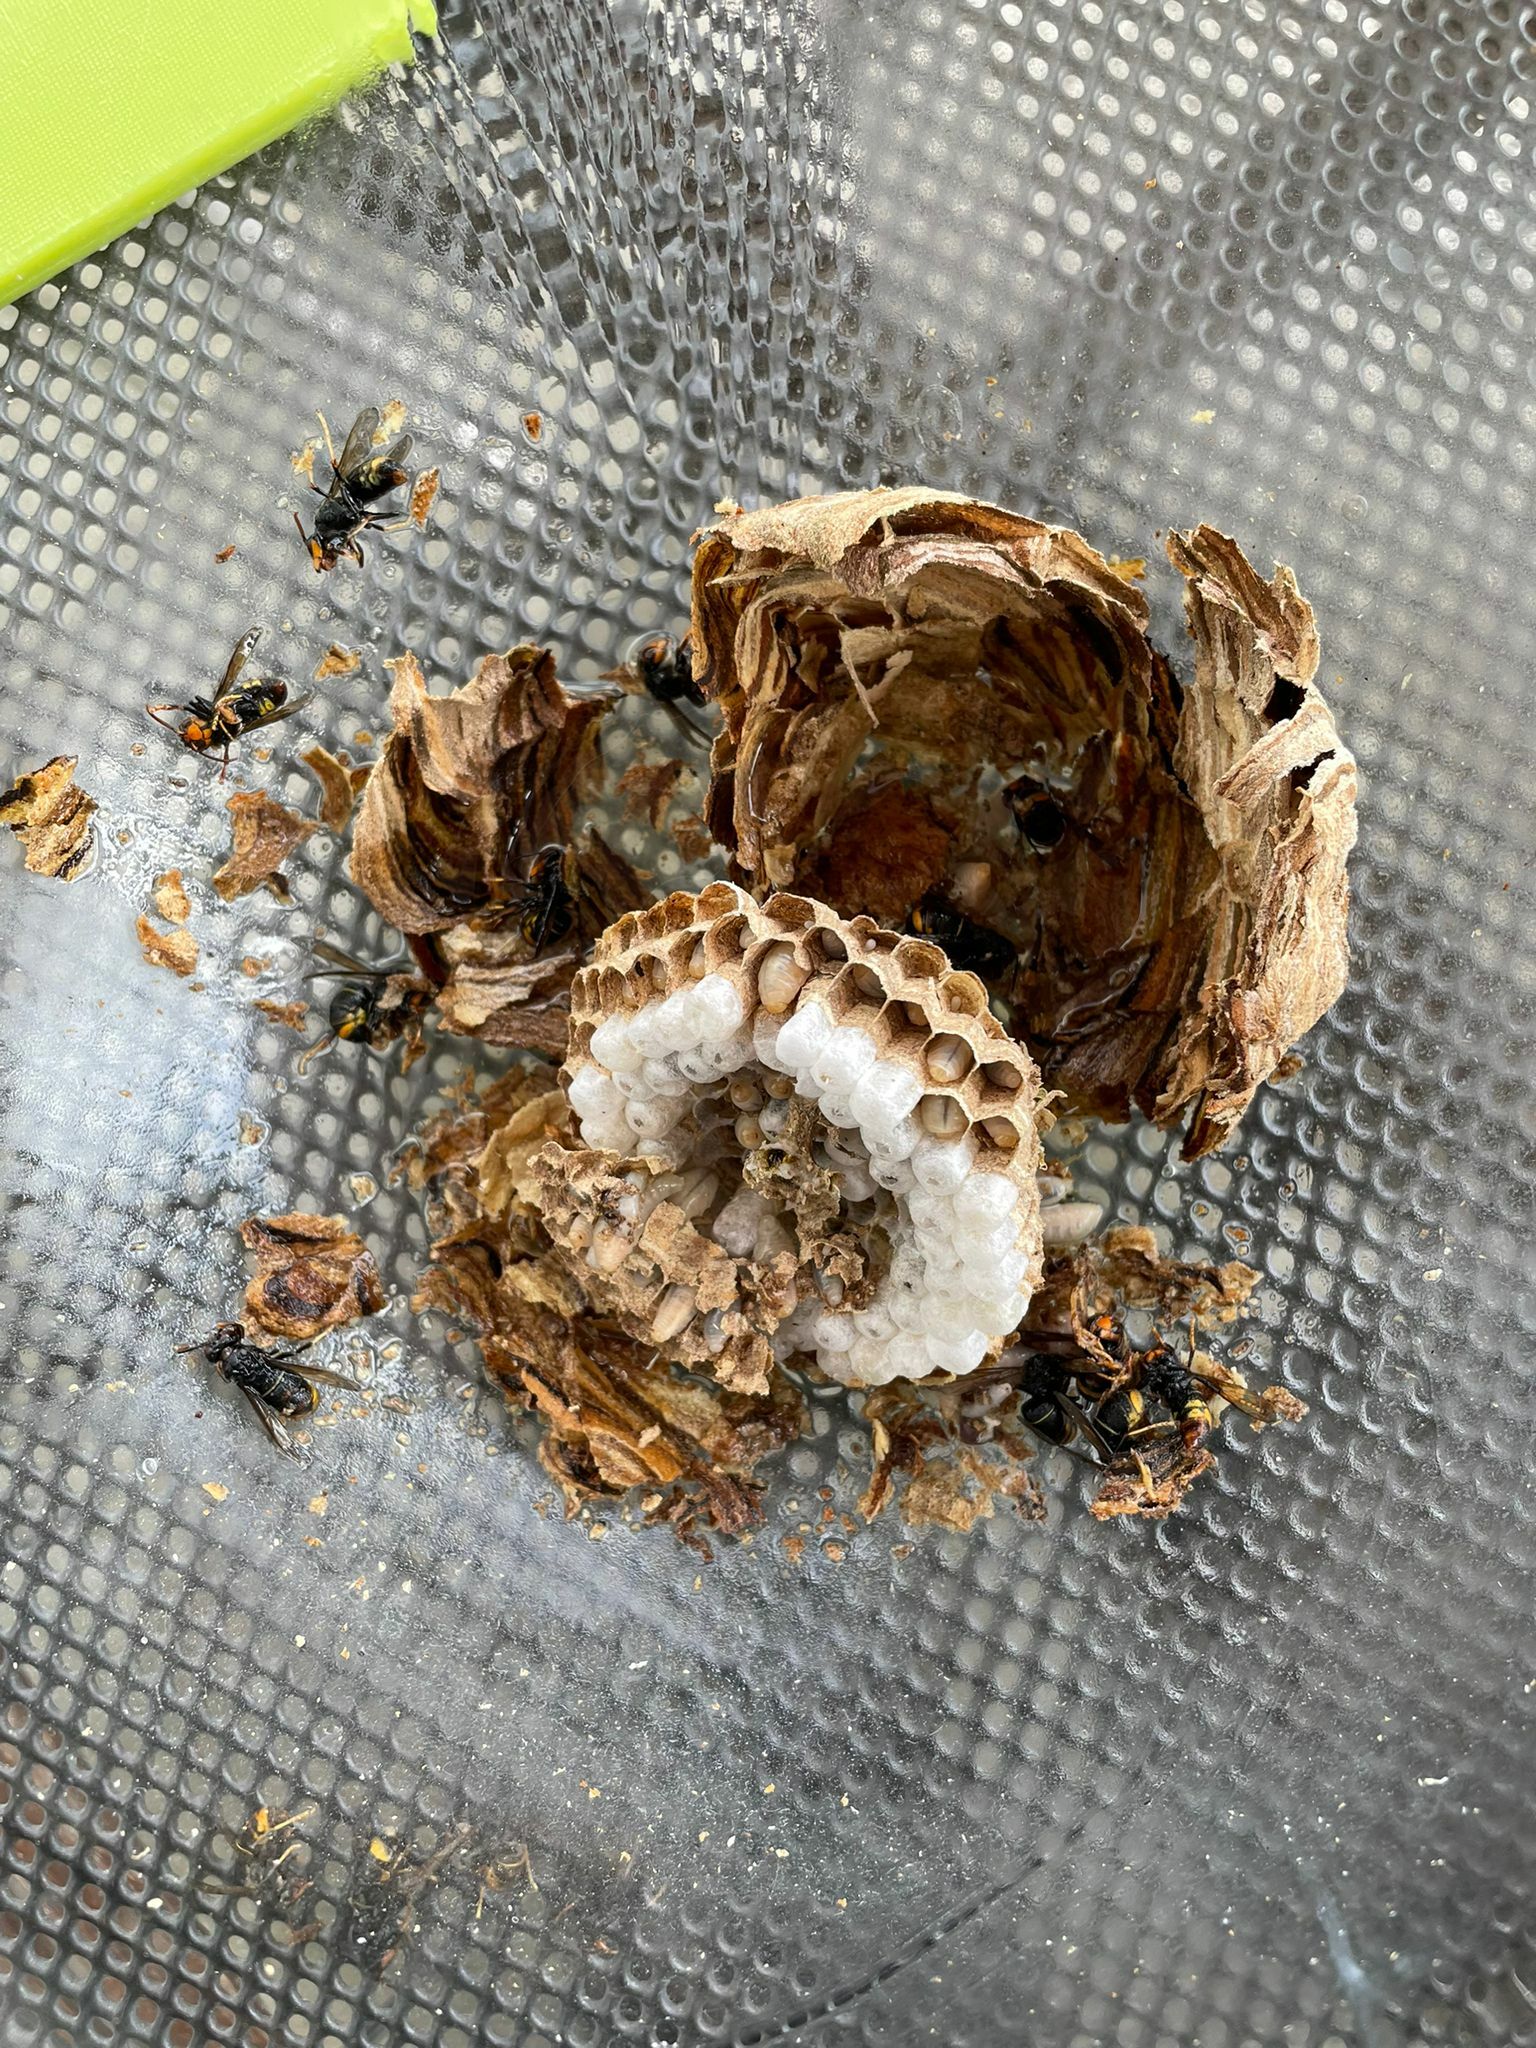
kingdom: Animalia
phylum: Arthropoda
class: Insecta
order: Hymenoptera
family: Vespidae
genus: Vespa
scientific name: Vespa velutina
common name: Asian hornet
